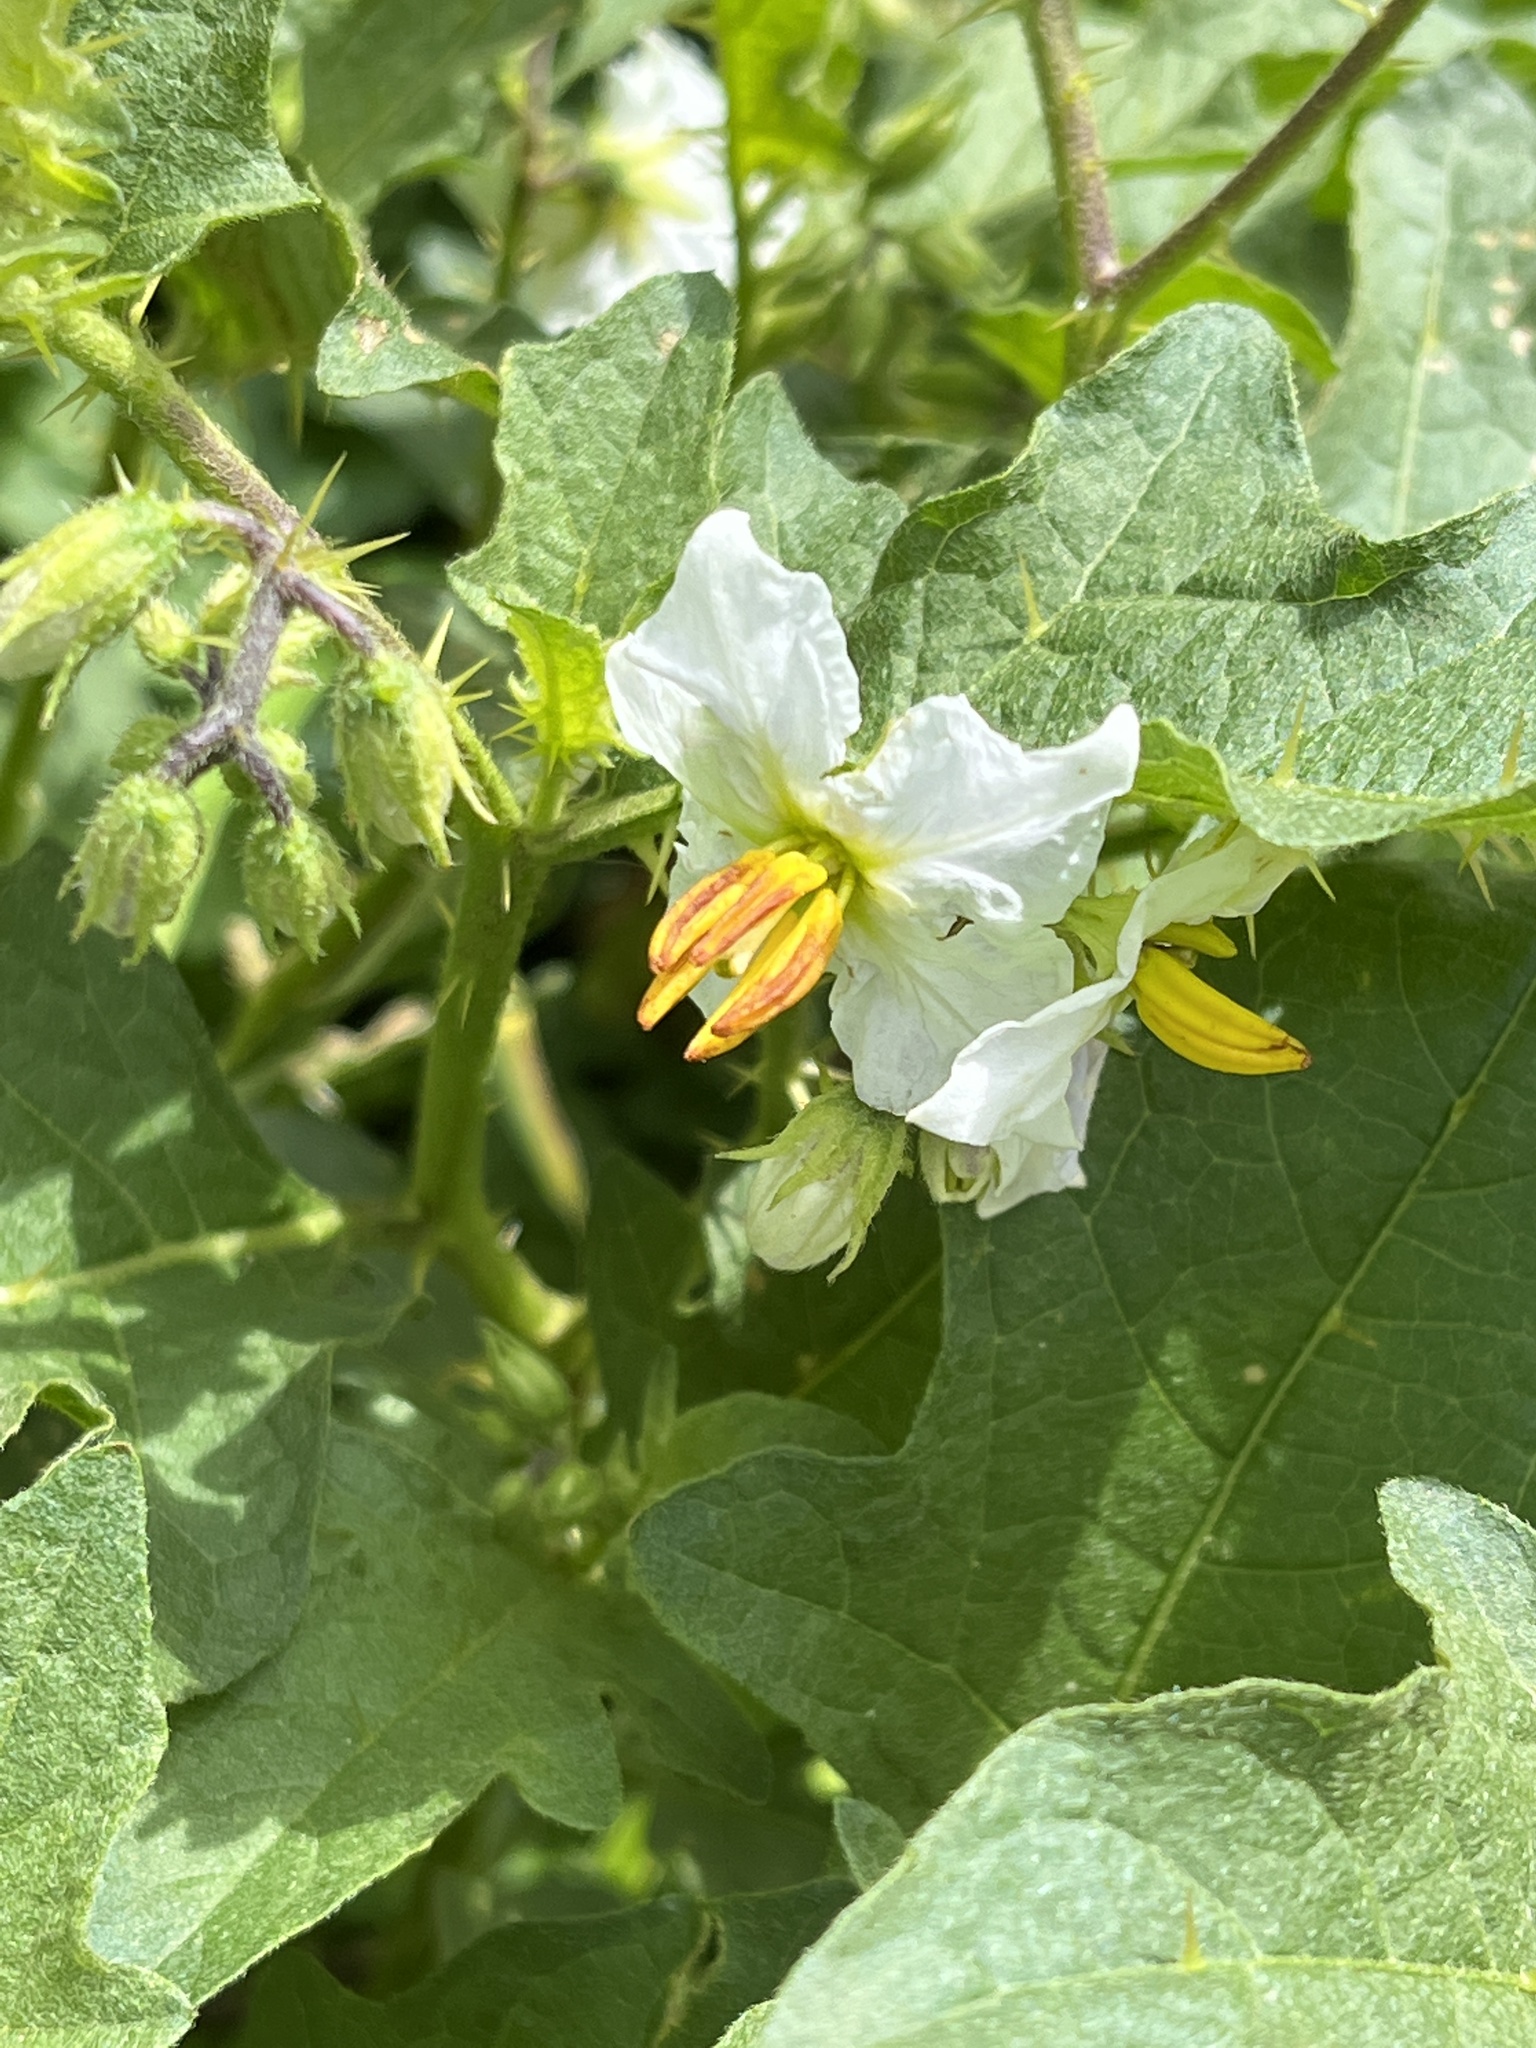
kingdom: Plantae
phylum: Tracheophyta
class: Magnoliopsida
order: Solanales
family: Solanaceae
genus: Solanum
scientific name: Solanum carolinense
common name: Horse-nettle
